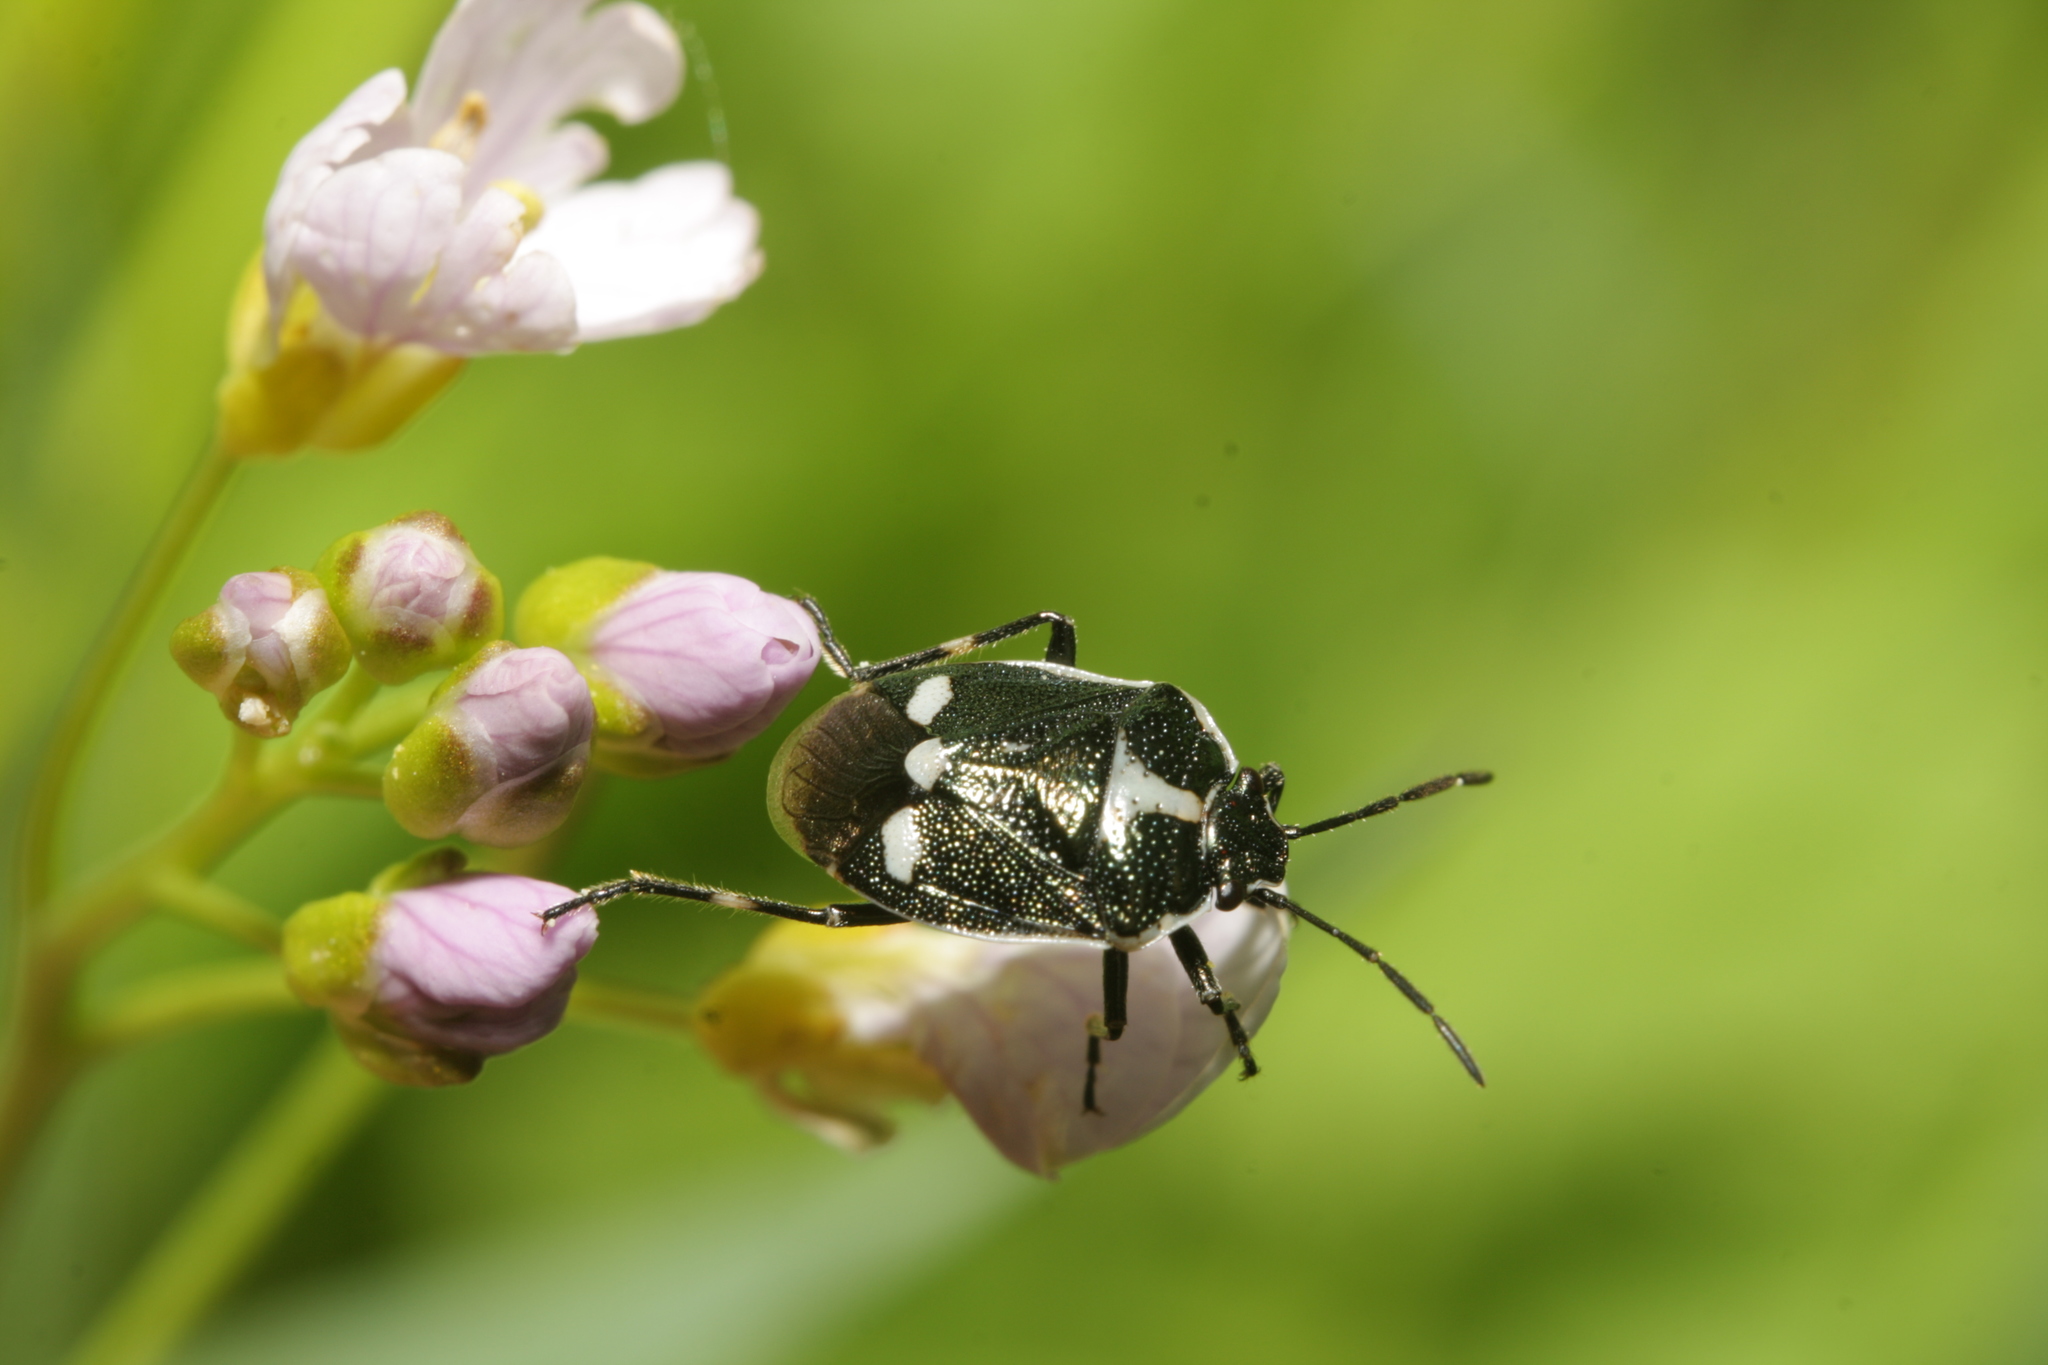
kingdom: Animalia
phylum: Arthropoda
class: Insecta
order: Hemiptera
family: Pentatomidae
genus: Eurydema
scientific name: Eurydema oleracea
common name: Cabbage bug
